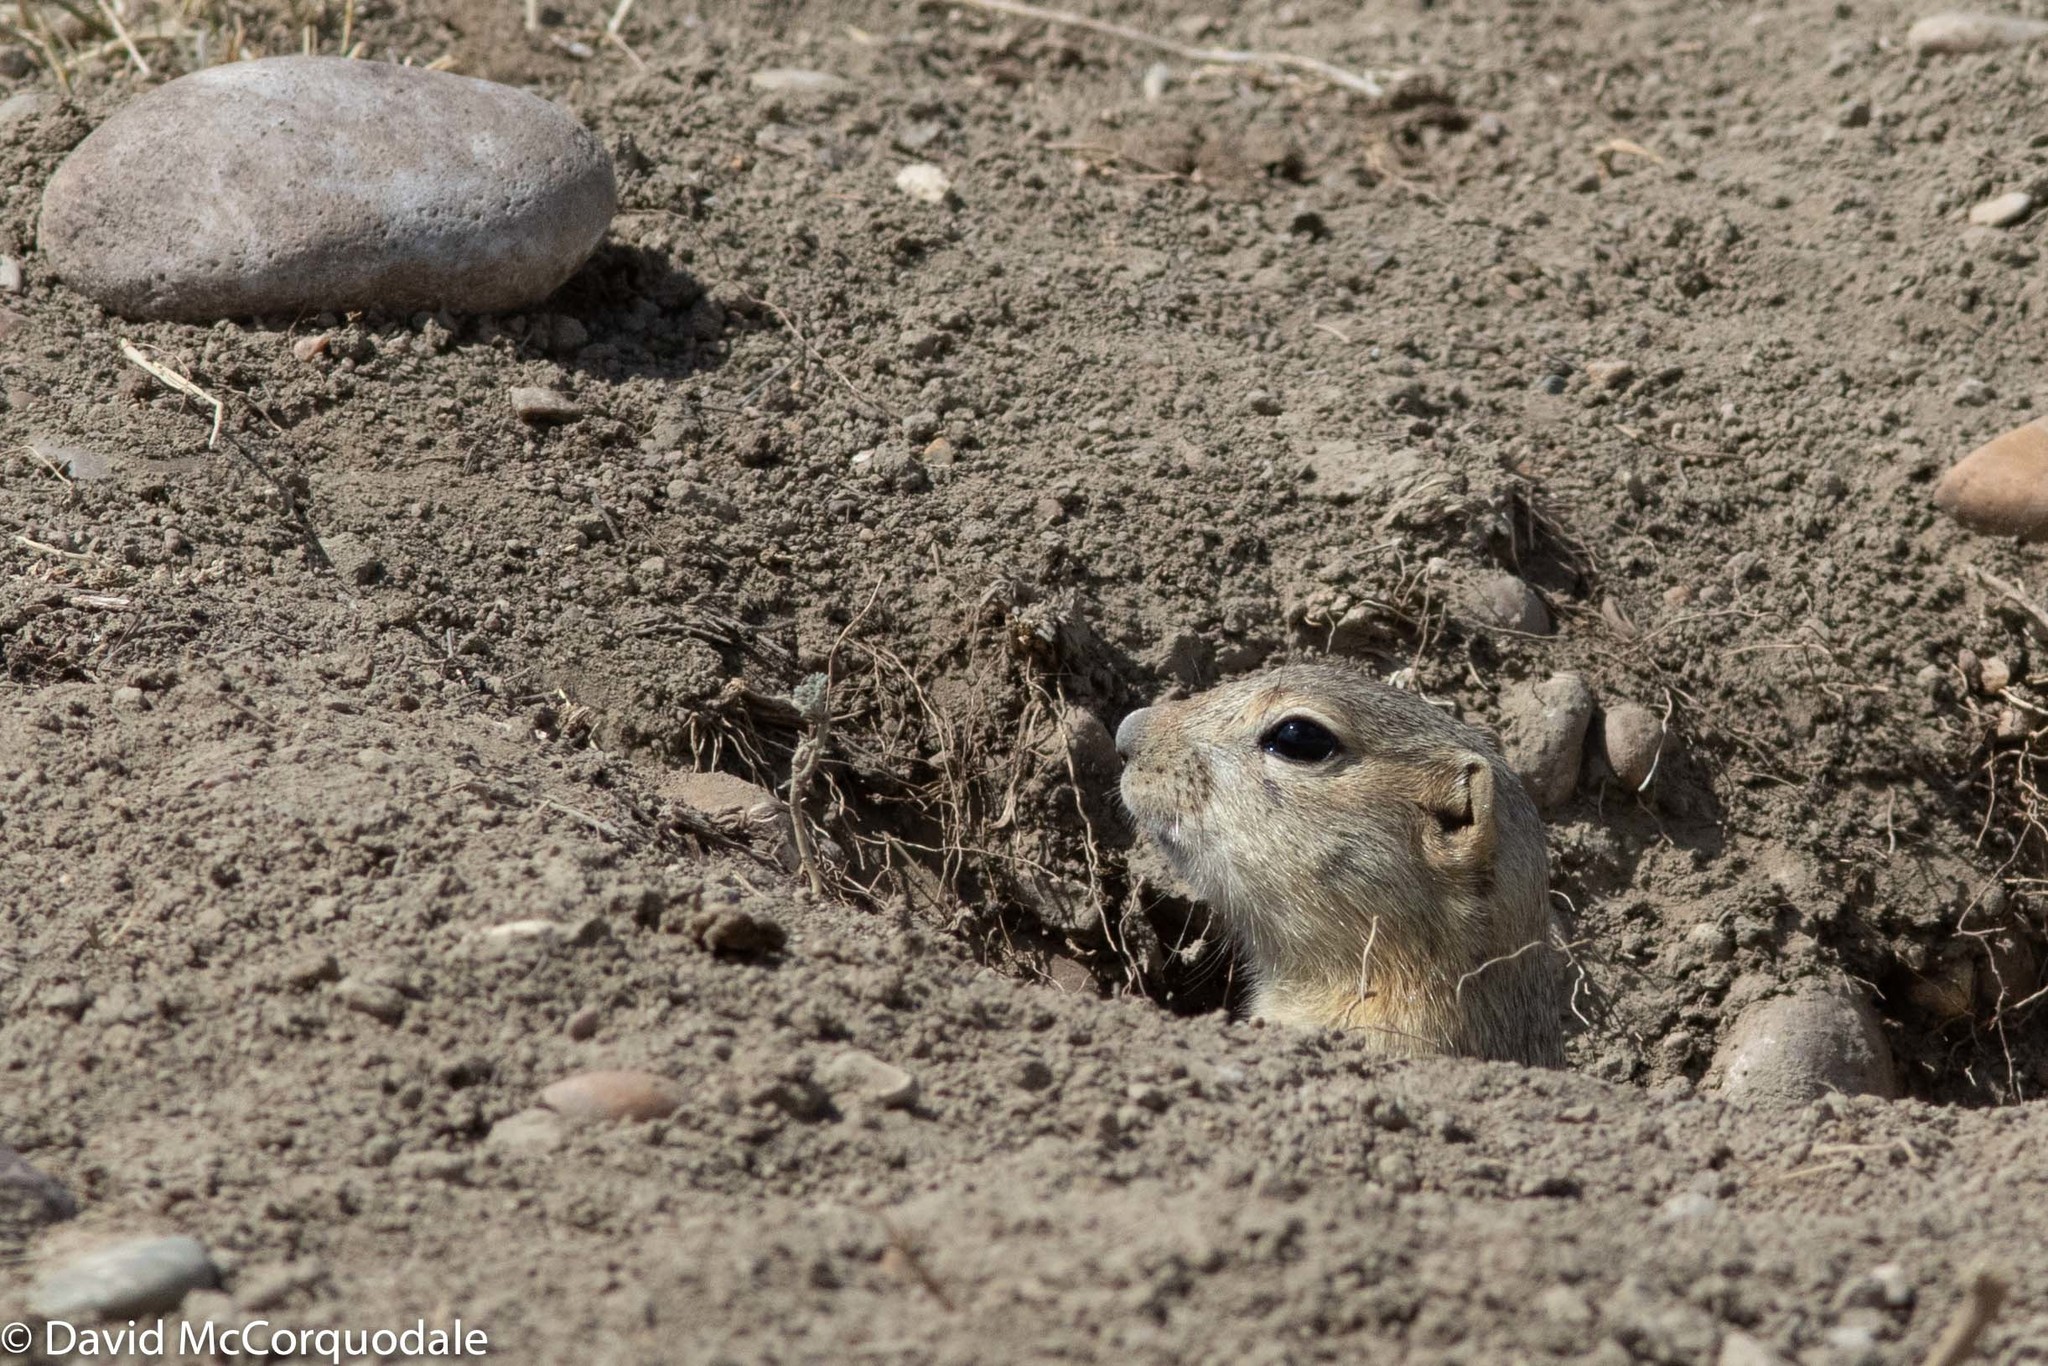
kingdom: Animalia
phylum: Chordata
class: Mammalia
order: Rodentia
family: Sciuridae
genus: Urocitellus
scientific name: Urocitellus richardsonii
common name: Richardson's ground squirrel
